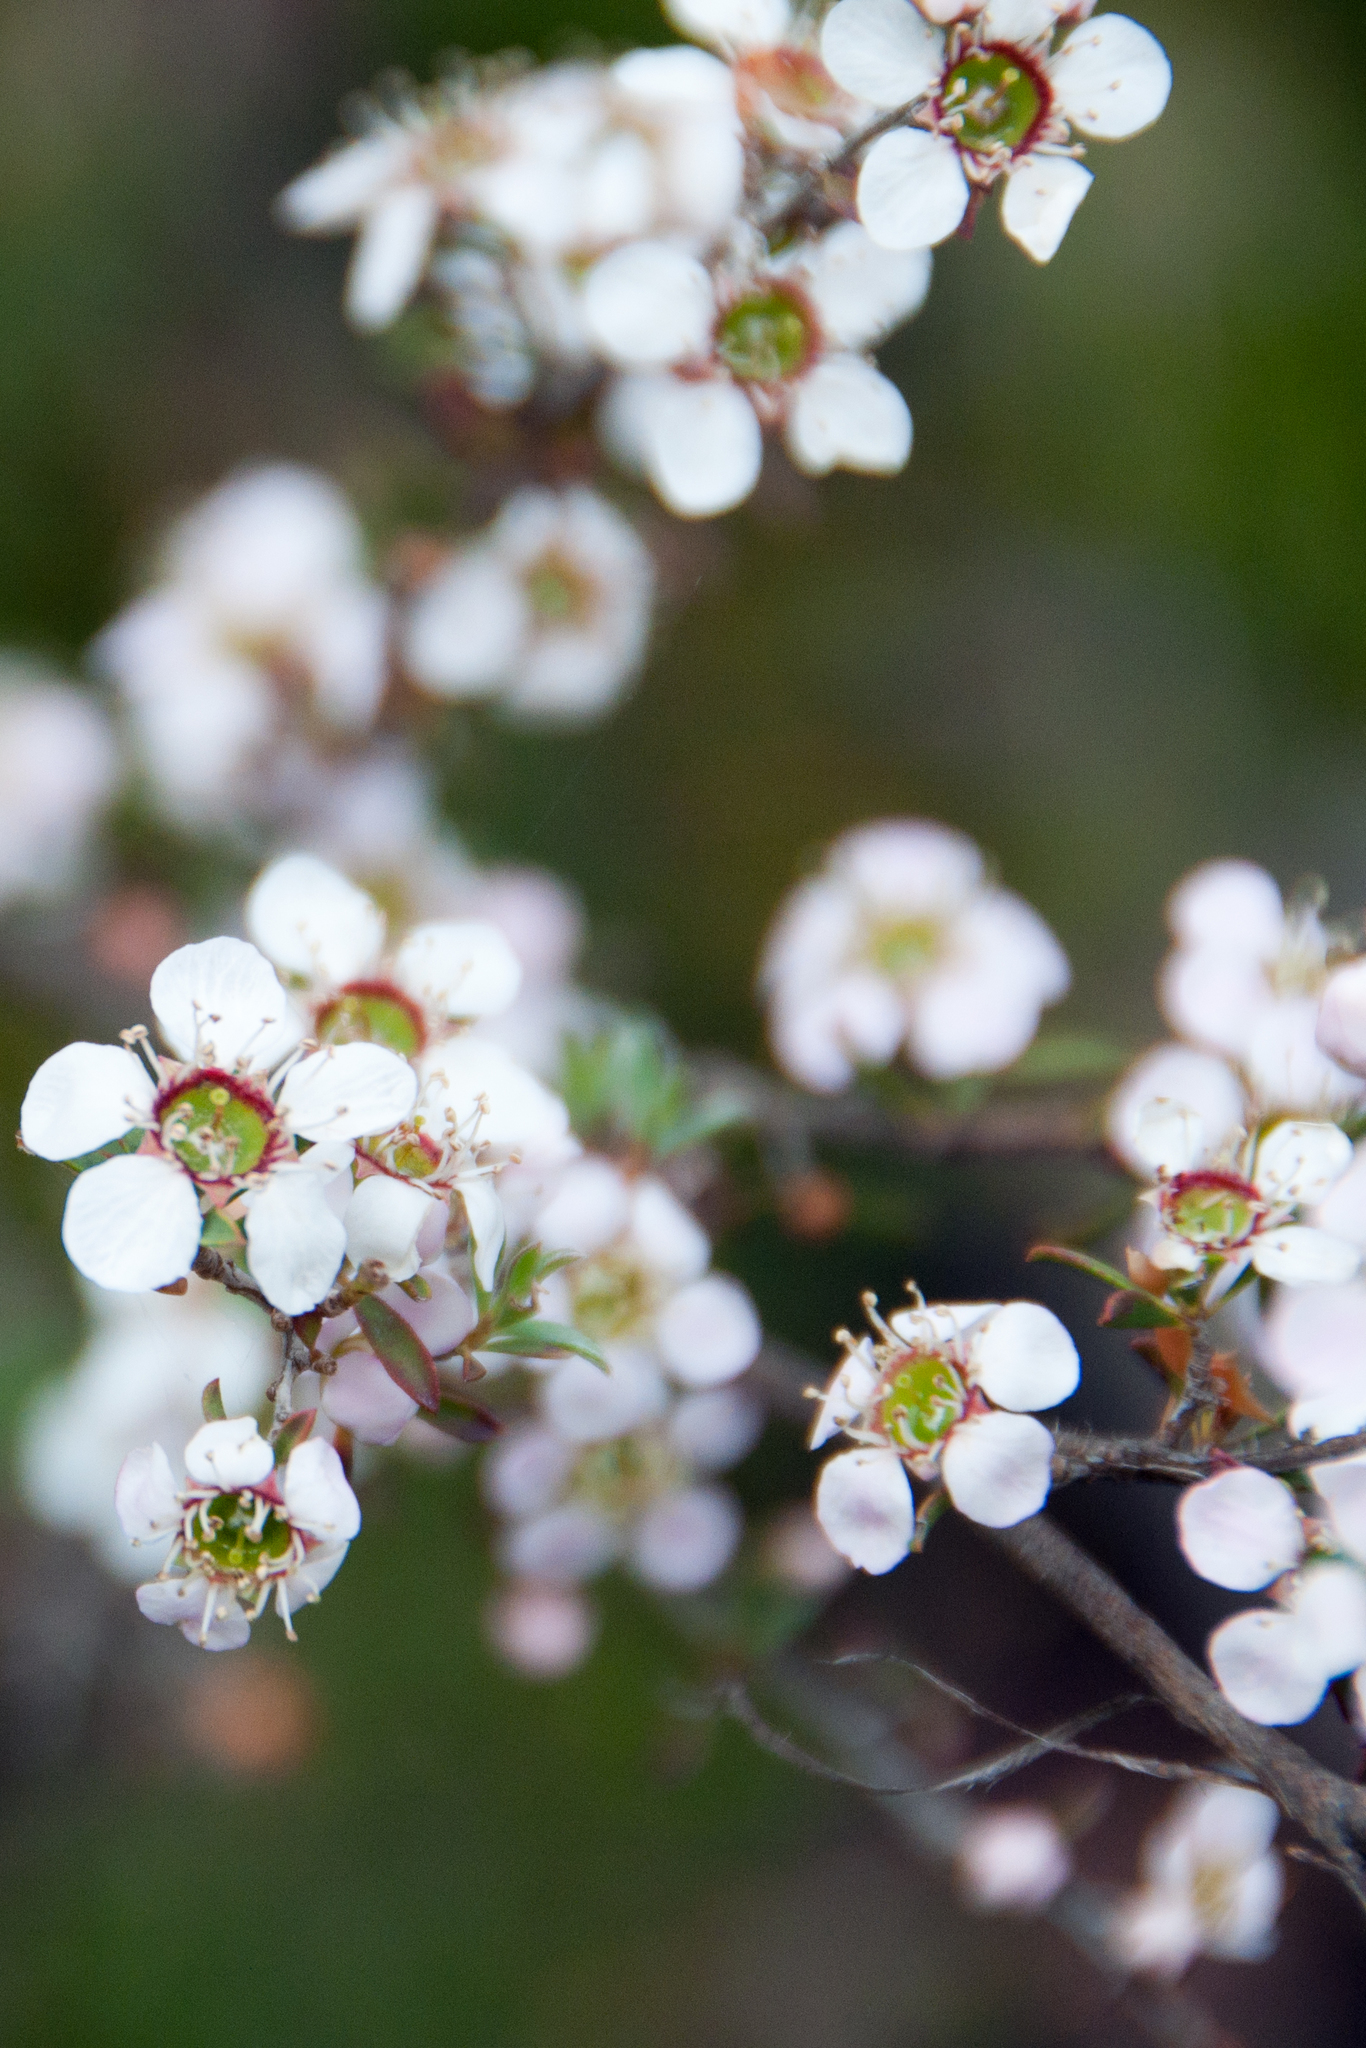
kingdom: Plantae
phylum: Tracheophyta
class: Magnoliopsida
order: Myrtales
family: Myrtaceae
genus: Leptospermum
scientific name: Leptospermum myrsinoides
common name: Heath teatree
